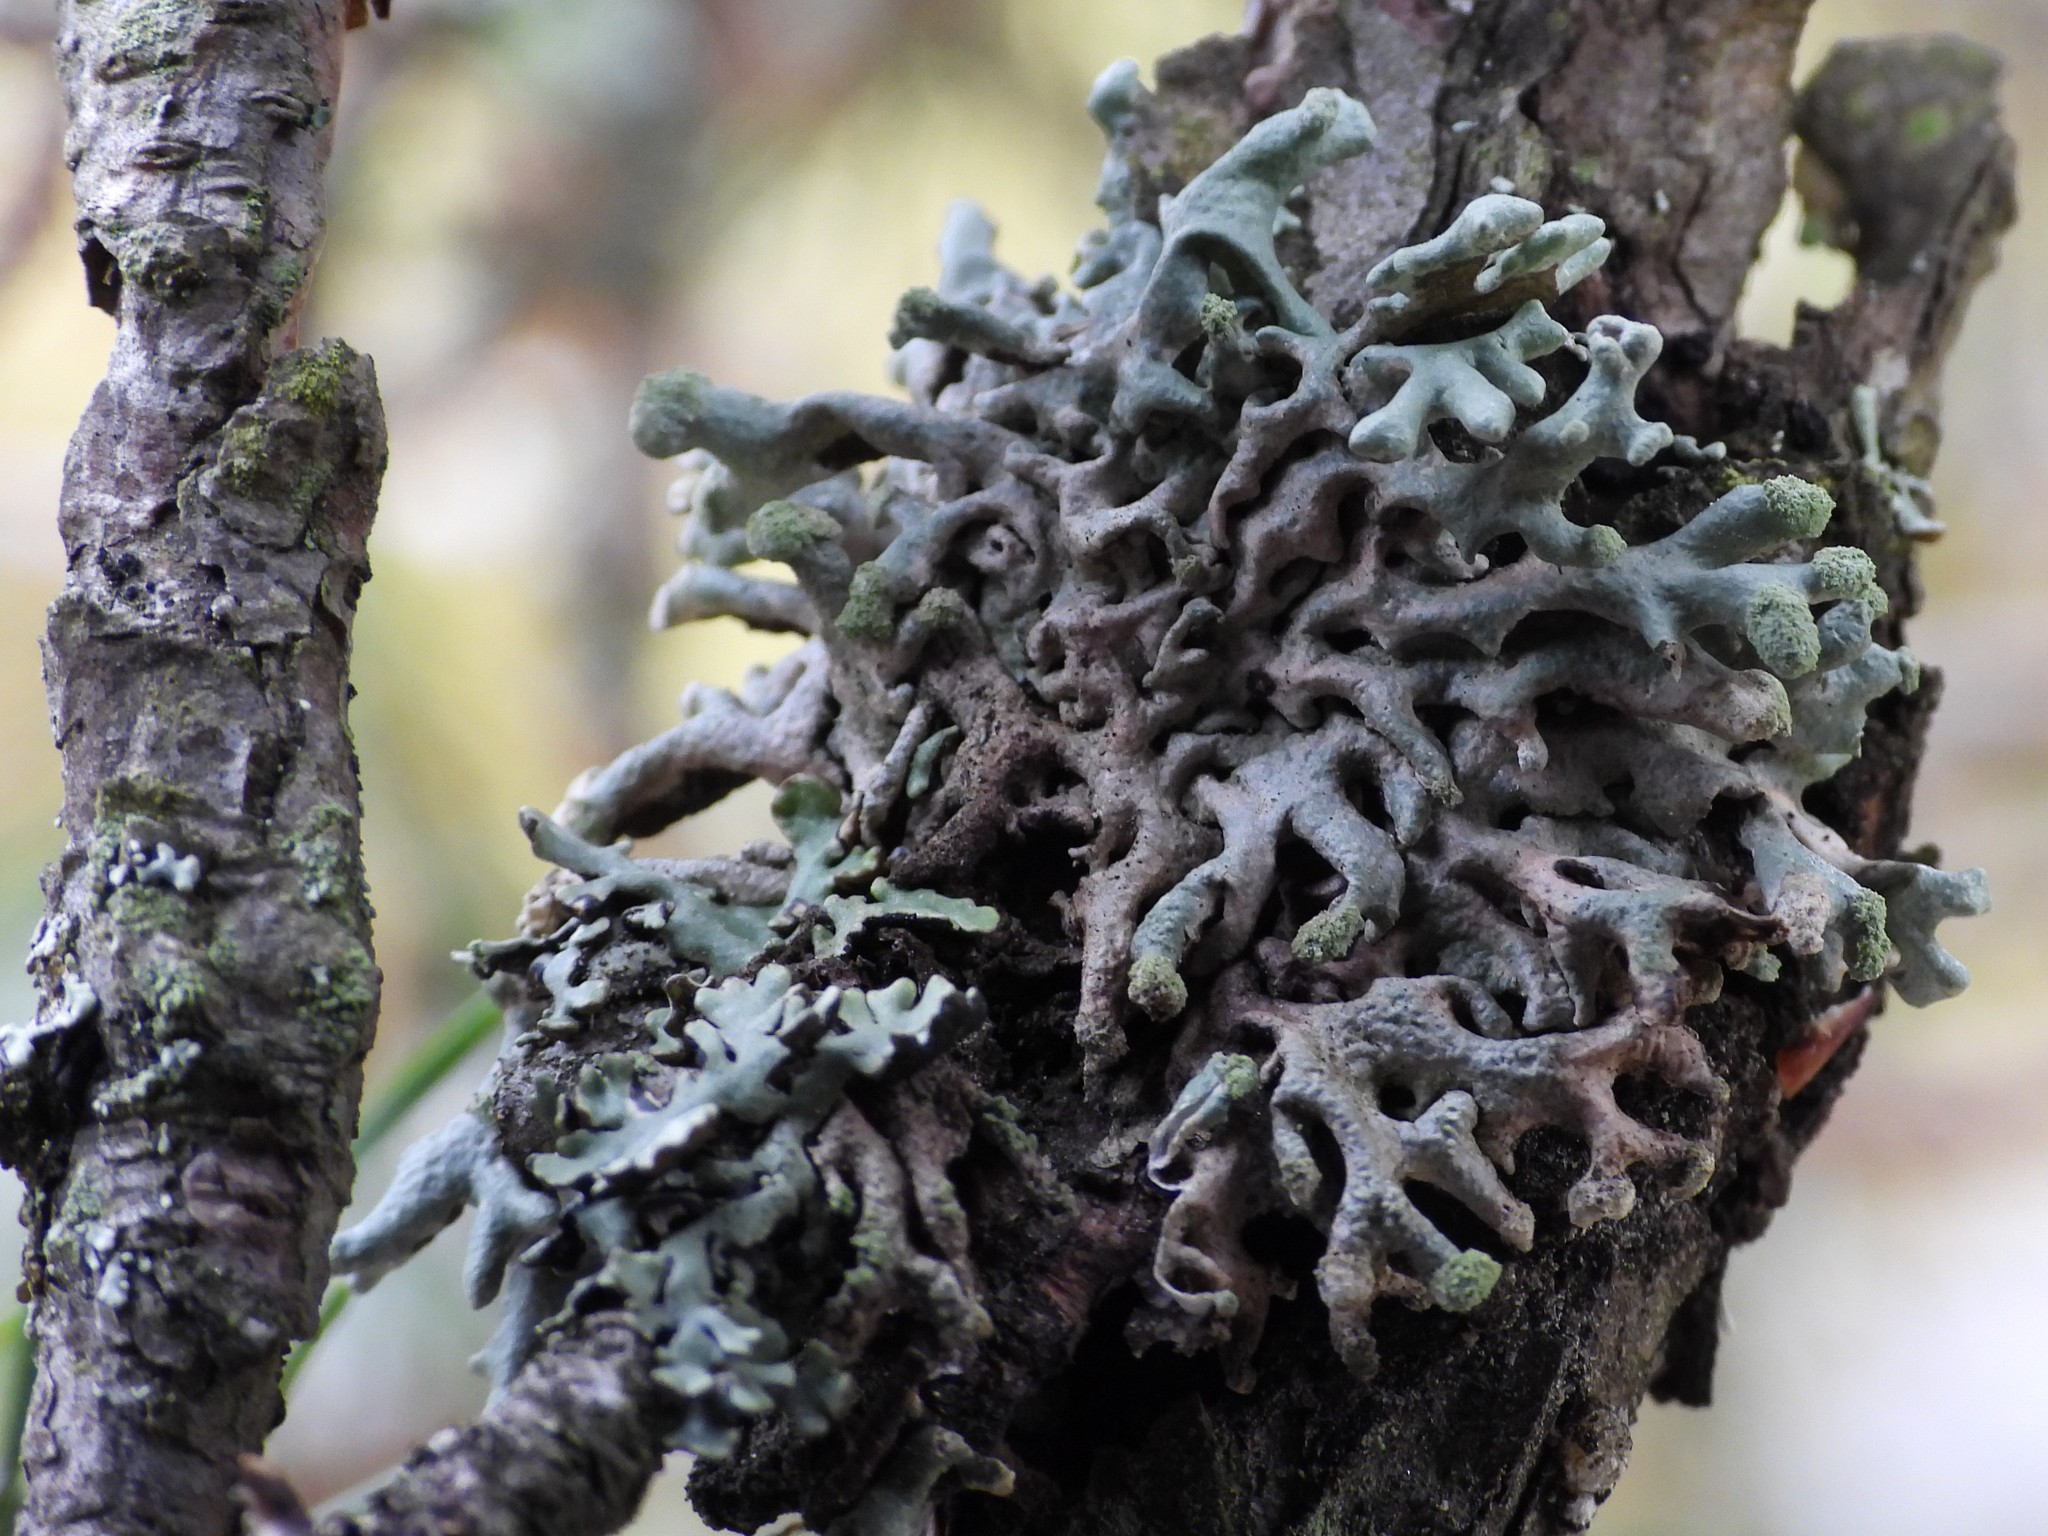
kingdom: Fungi
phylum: Ascomycota
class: Lecanoromycetes
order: Lecanorales
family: Parmeliaceae
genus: Hypogymnia
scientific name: Hypogymnia tubulosa
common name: Powder-headed tube lichen
